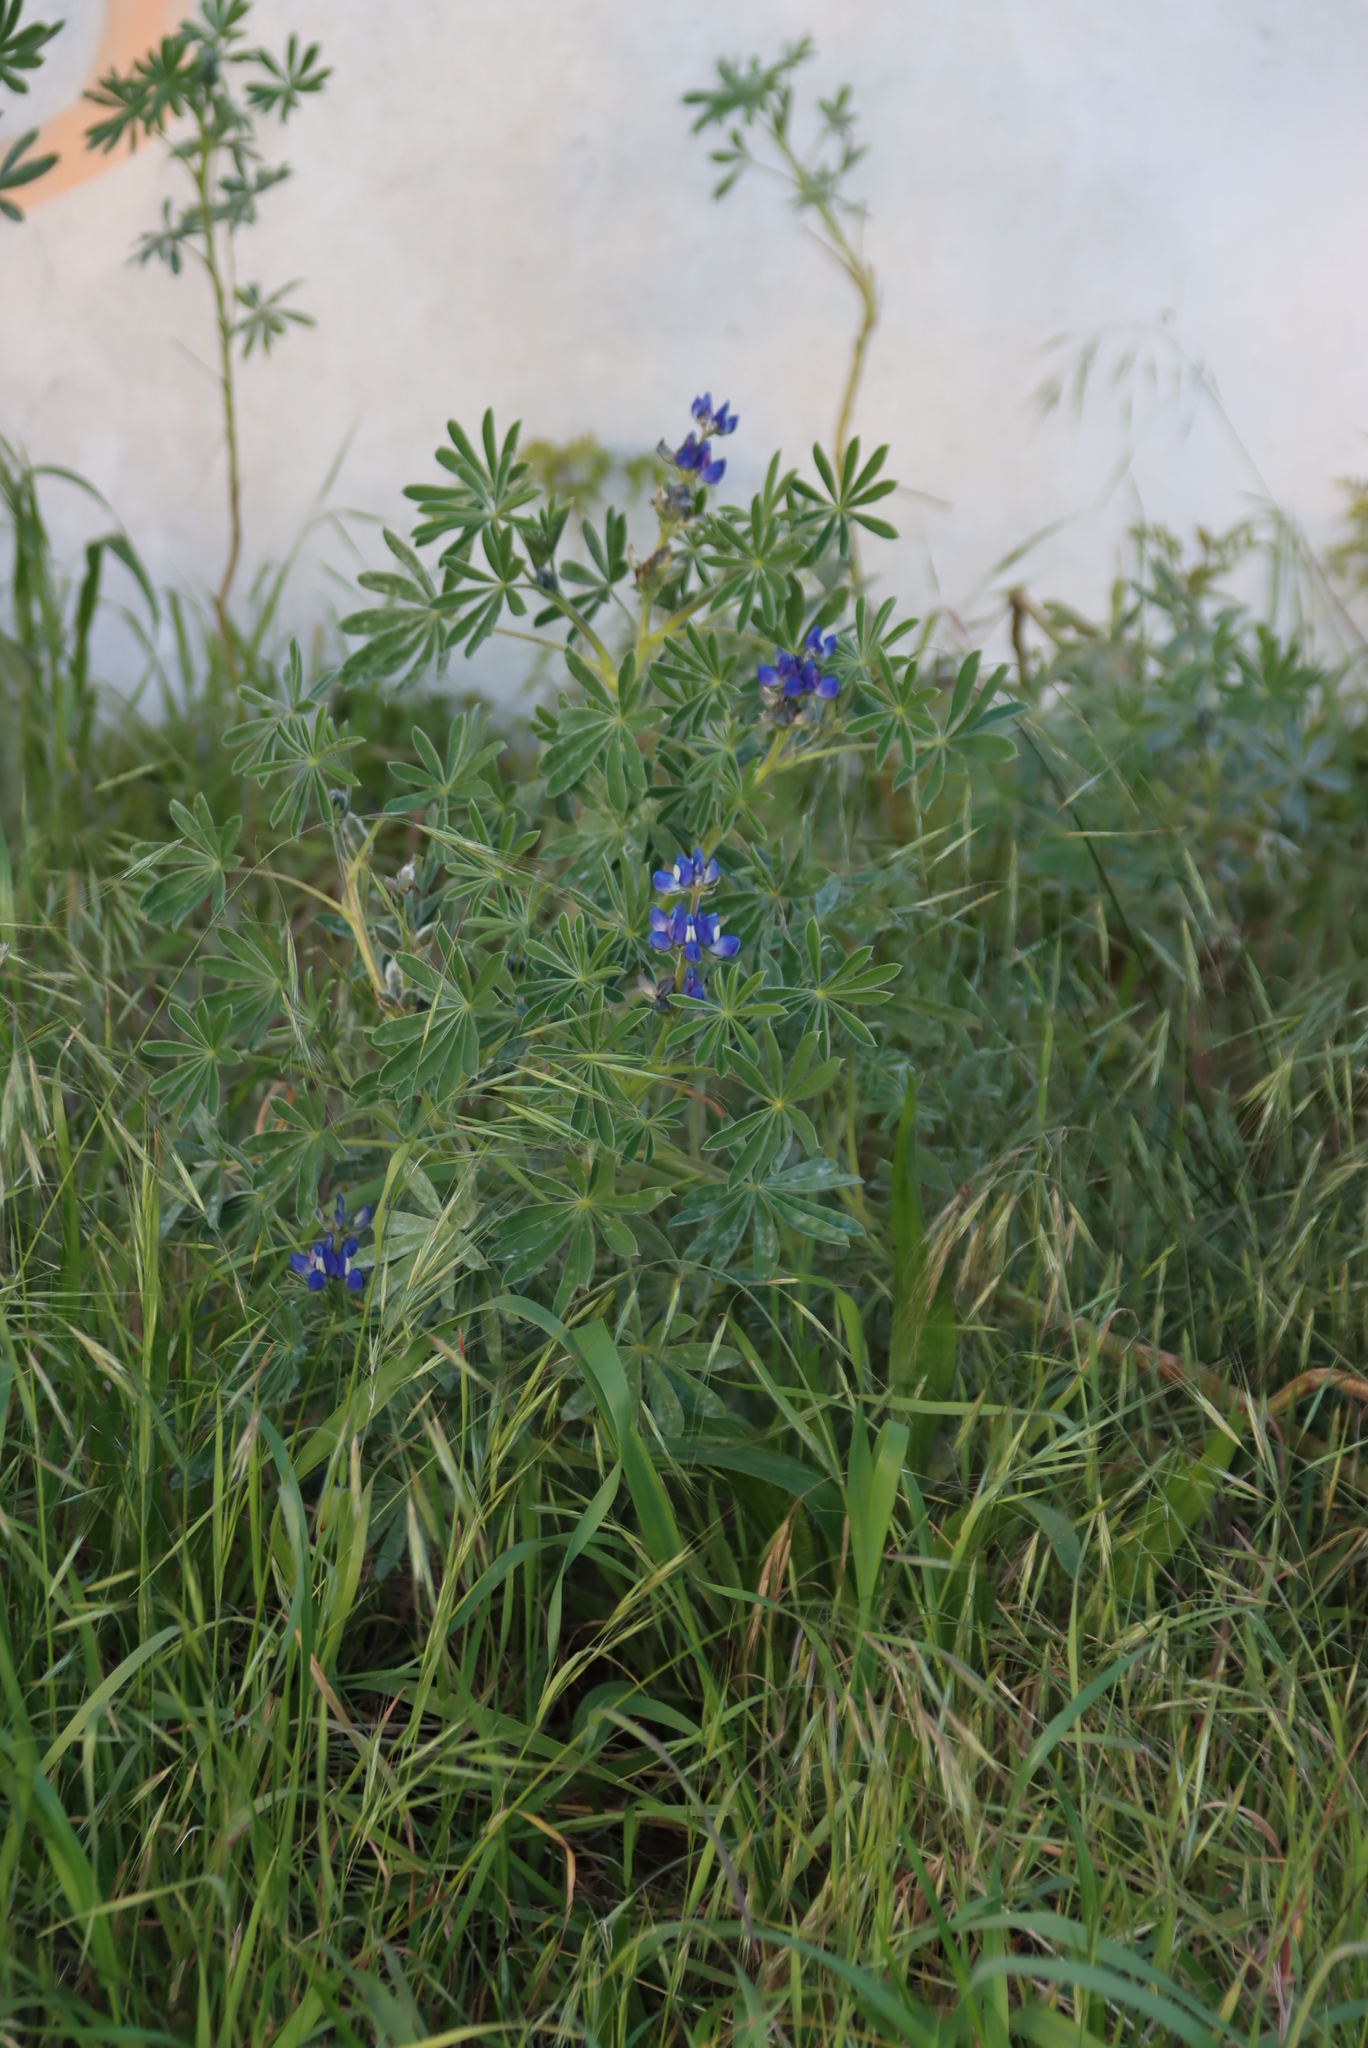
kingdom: Plantae
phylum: Tracheophyta
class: Magnoliopsida
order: Fabales
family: Fabaceae
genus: Lupinus
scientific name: Lupinus cosentinii
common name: Hairy blue lupin
